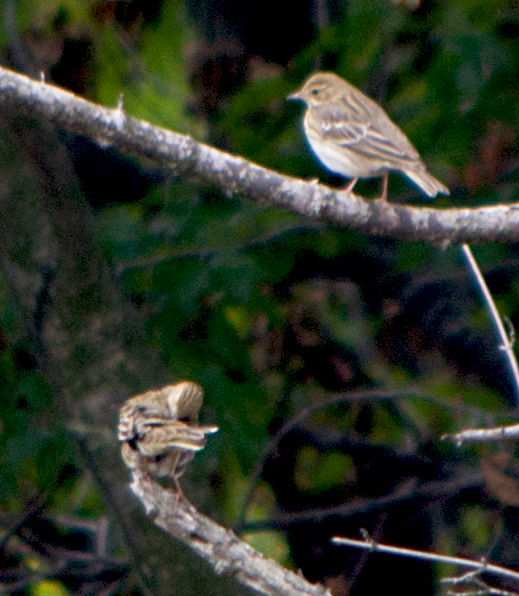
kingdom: Animalia
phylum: Chordata
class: Aves
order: Passeriformes
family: Motacillidae
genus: Anthus
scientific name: Anthus trivialis
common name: Tree pipit
